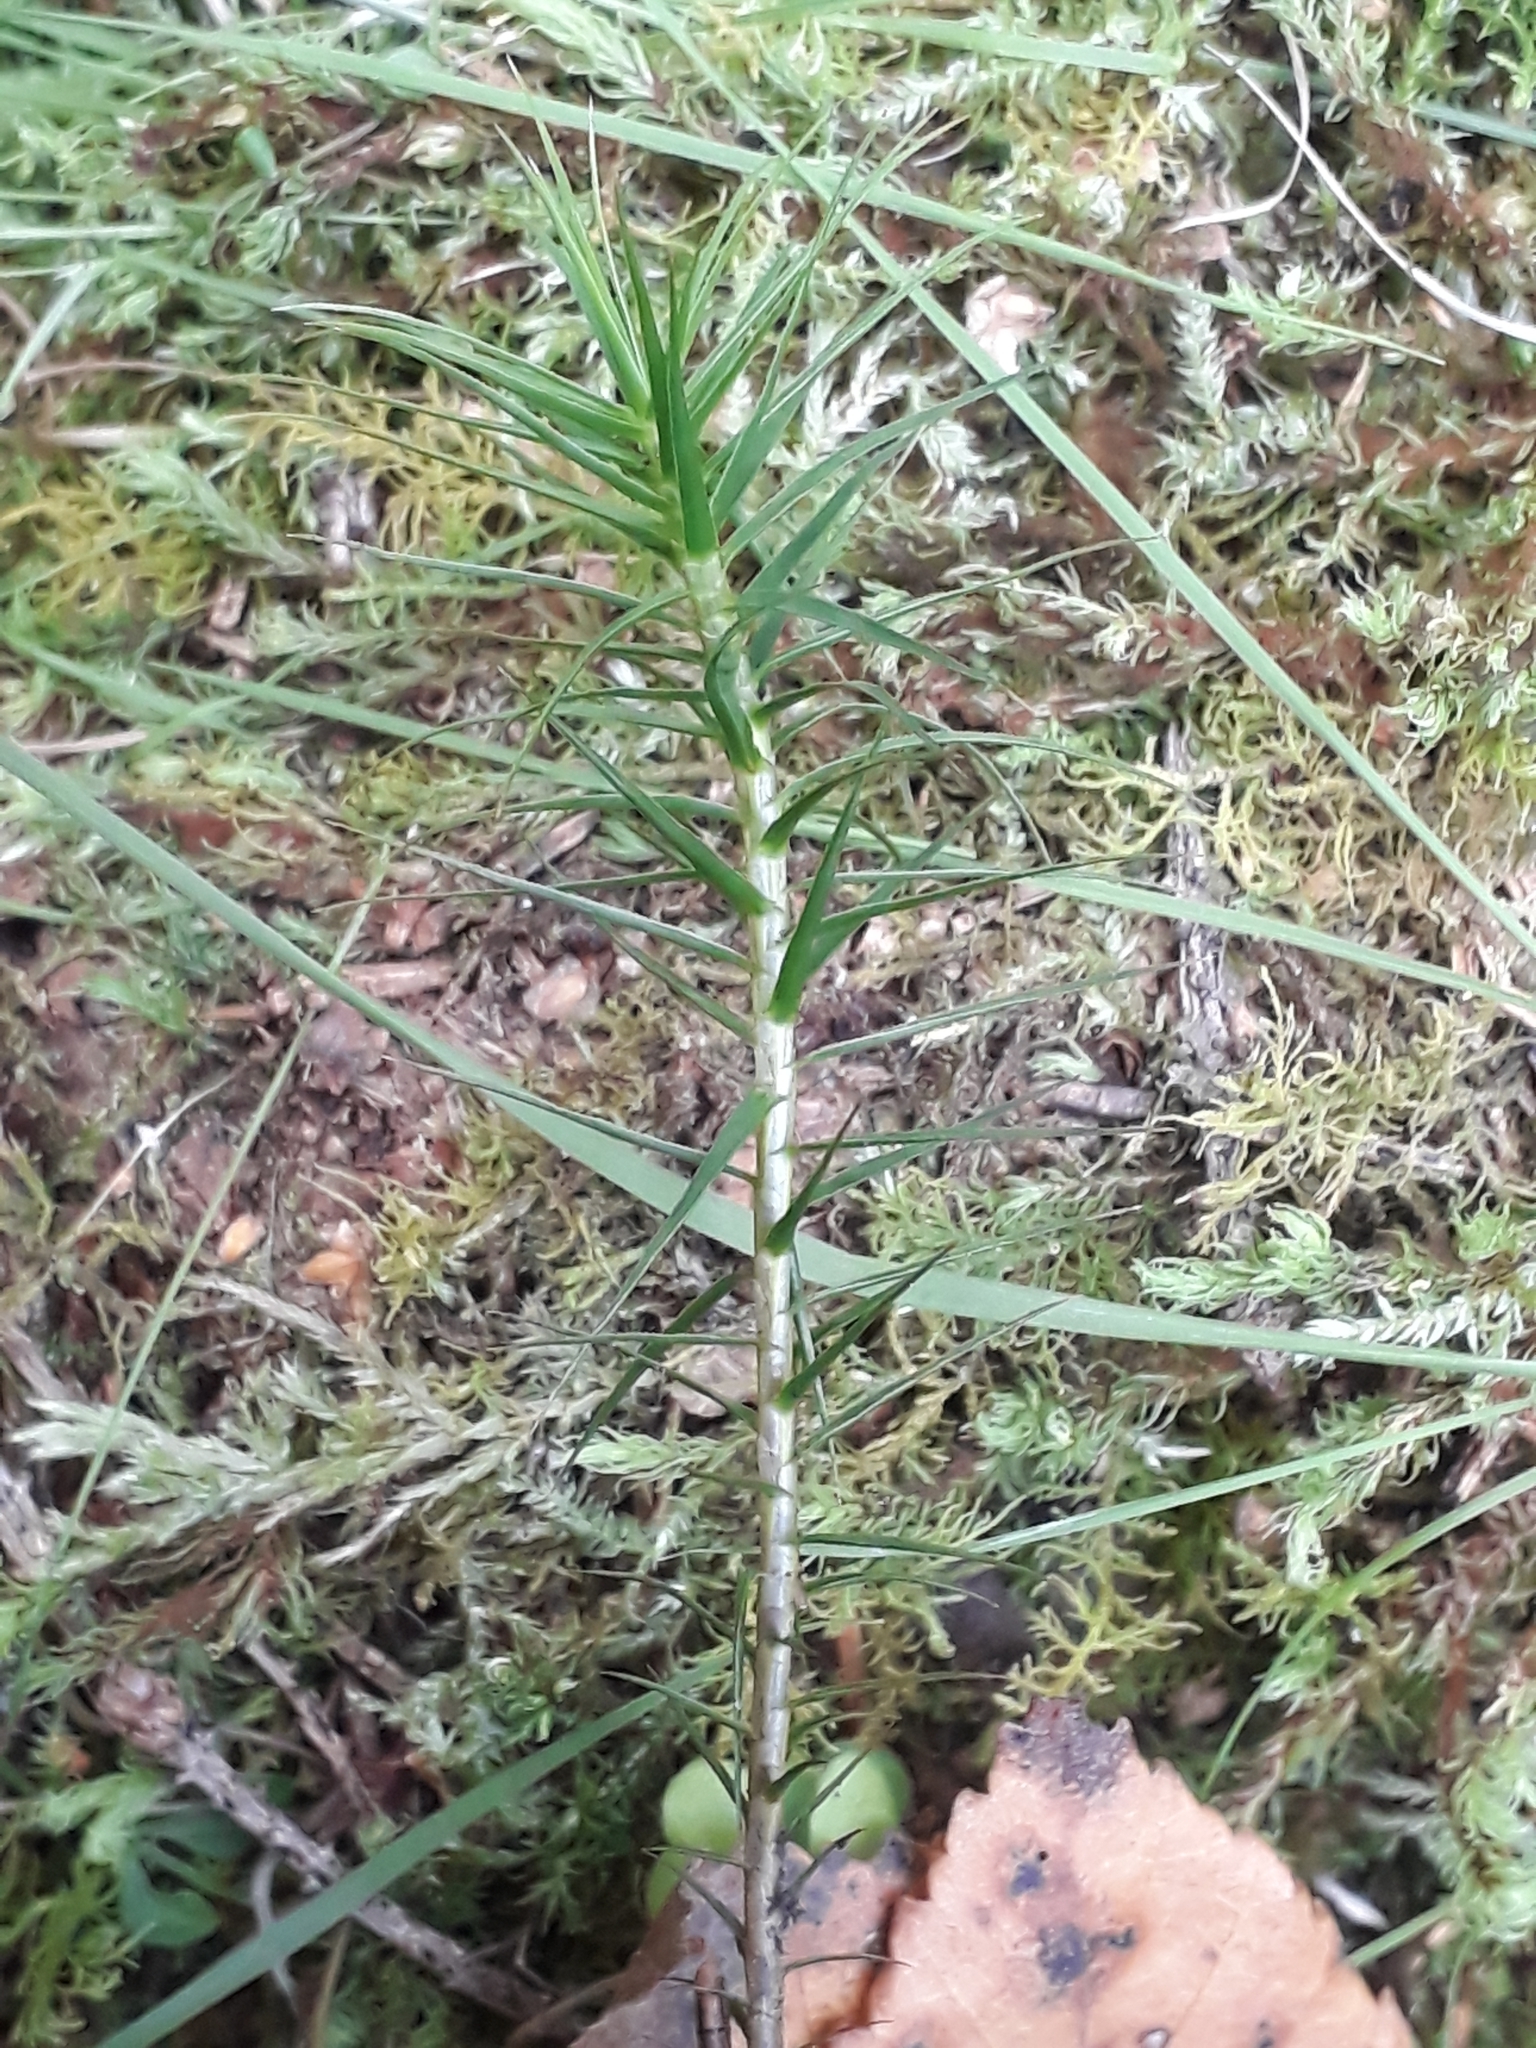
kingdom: Plantae
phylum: Bryophyta
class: Polytrichopsida
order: Polytrichales
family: Polytrichaceae
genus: Polytrichum
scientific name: Polytrichum commune
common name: Common haircap
